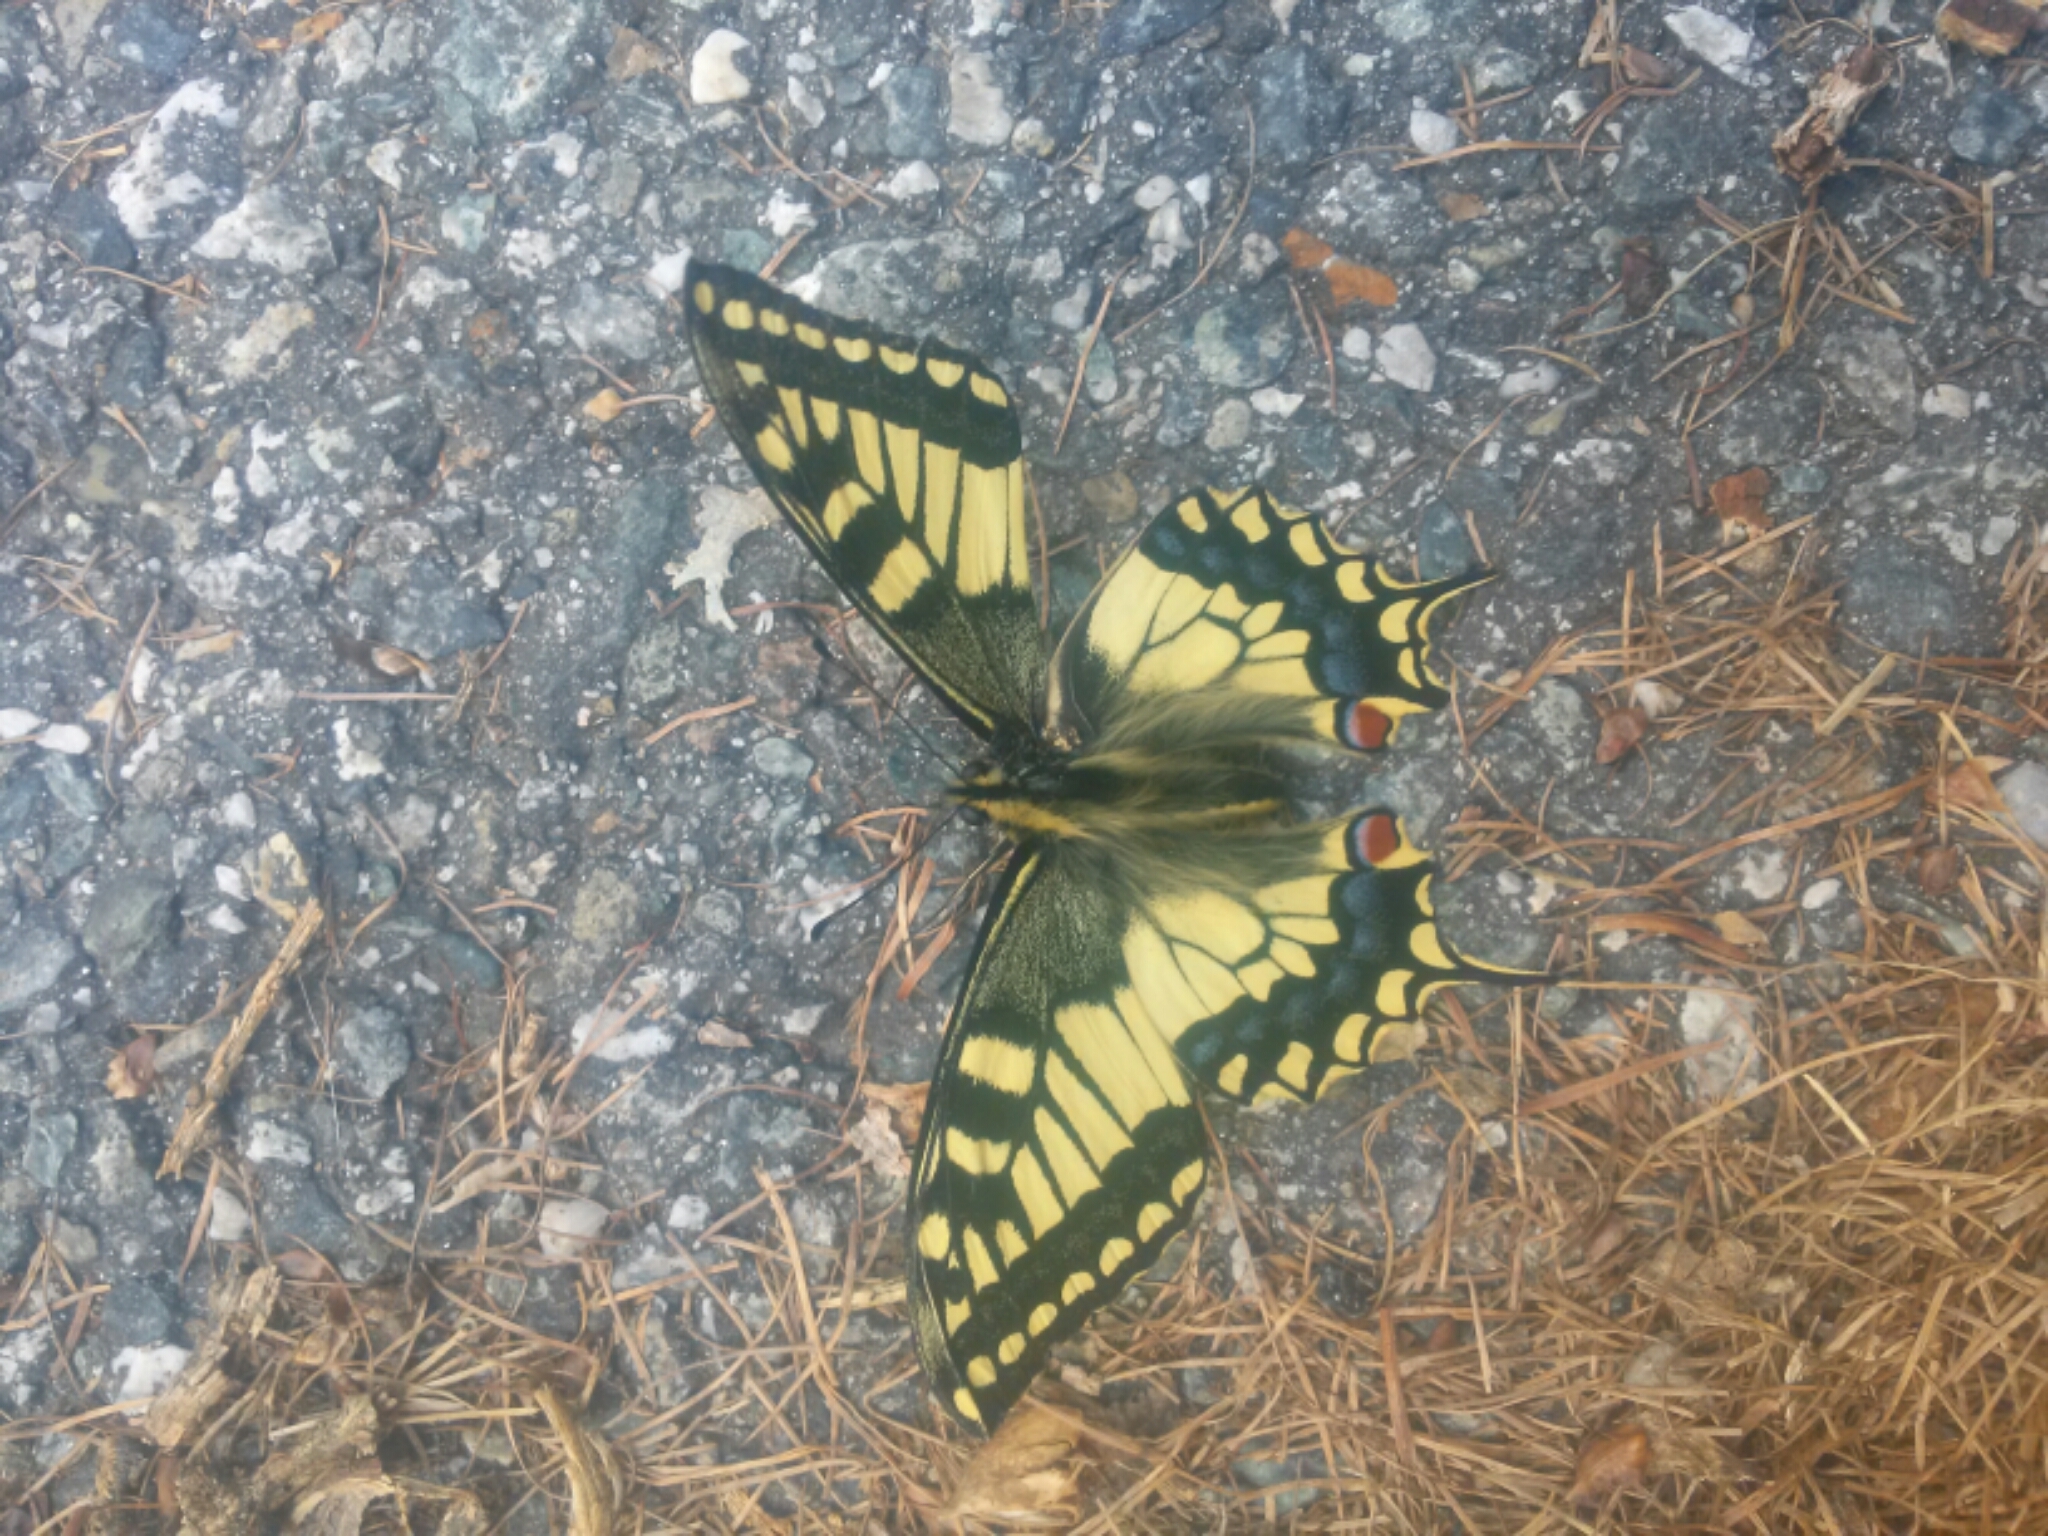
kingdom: Animalia
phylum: Arthropoda
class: Insecta
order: Lepidoptera
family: Papilionidae
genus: Papilio
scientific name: Papilio machaon
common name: Swallowtail
